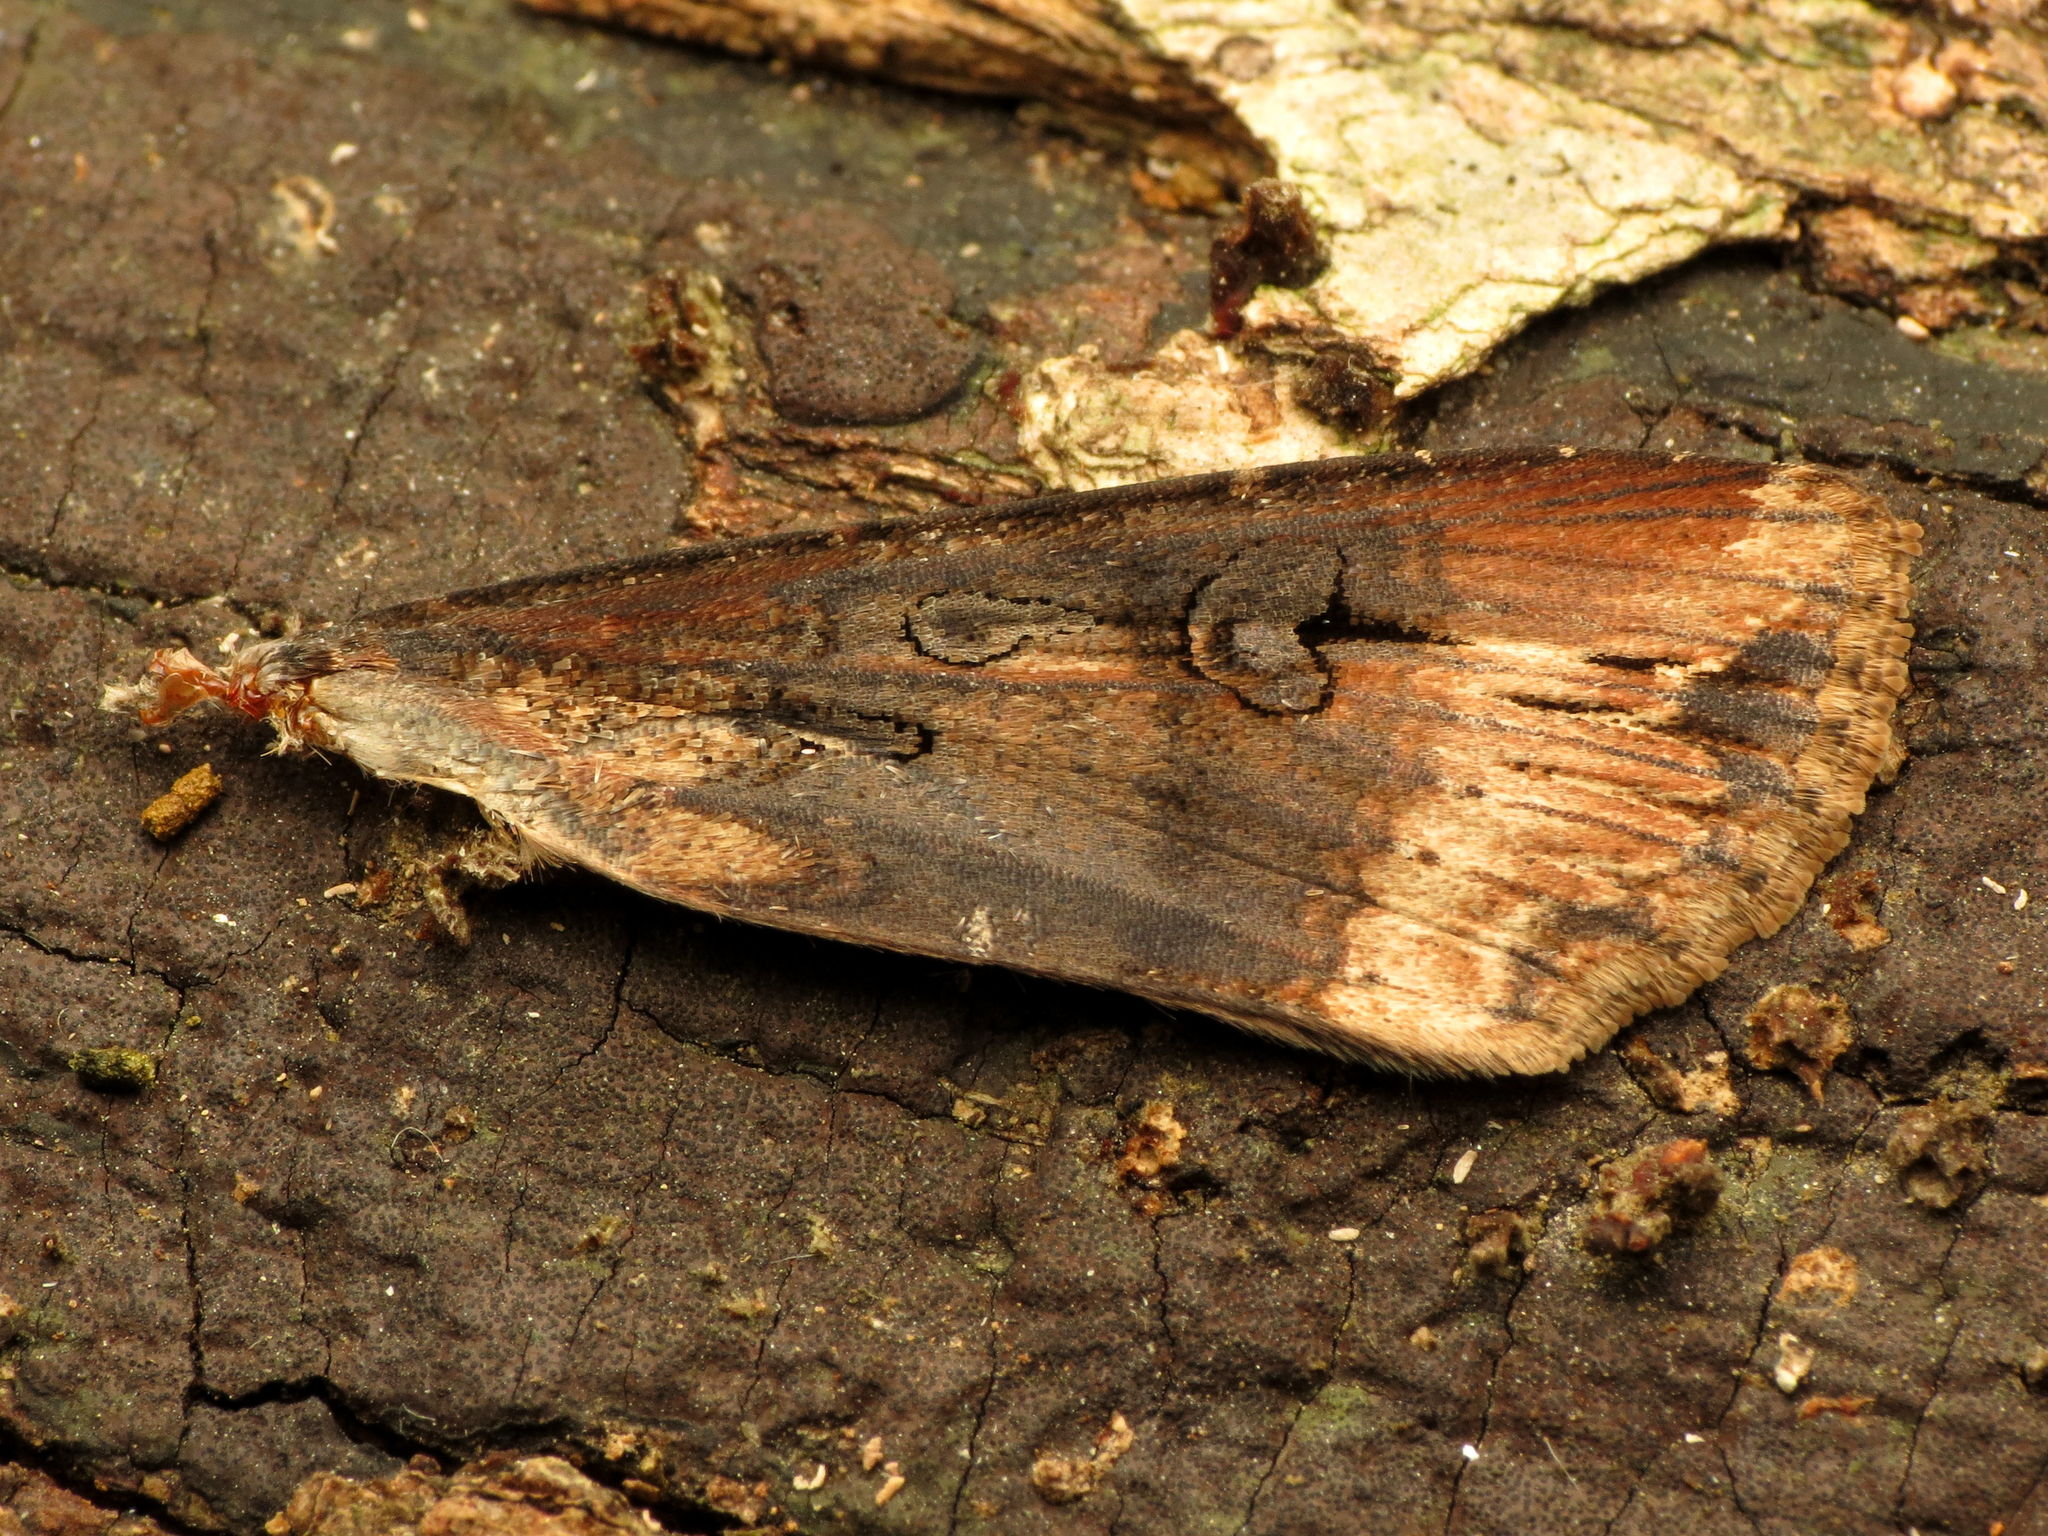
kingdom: Animalia
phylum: Arthropoda
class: Insecta
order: Lepidoptera
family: Noctuidae
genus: Agrotis
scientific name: Agrotis ipsilon
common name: Dark sword-grass
